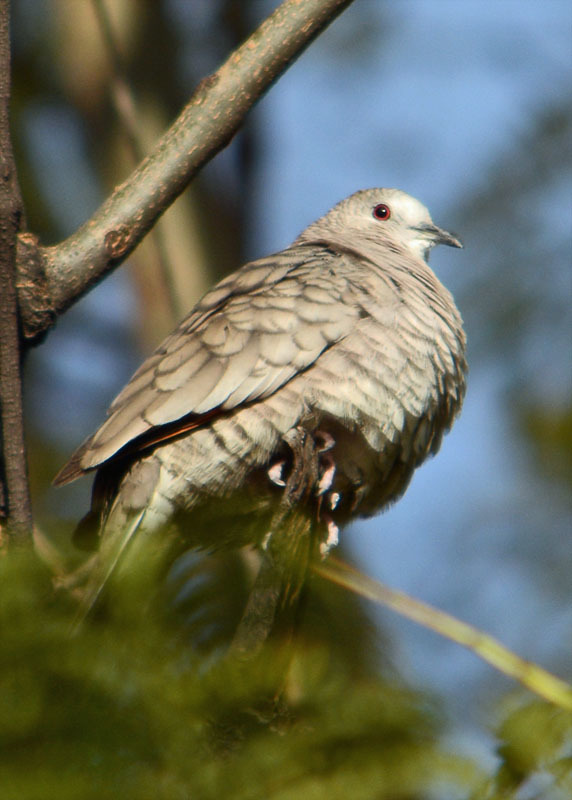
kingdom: Animalia
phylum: Chordata
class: Aves
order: Columbiformes
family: Columbidae
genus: Columbina
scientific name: Columbina inca
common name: Inca dove
